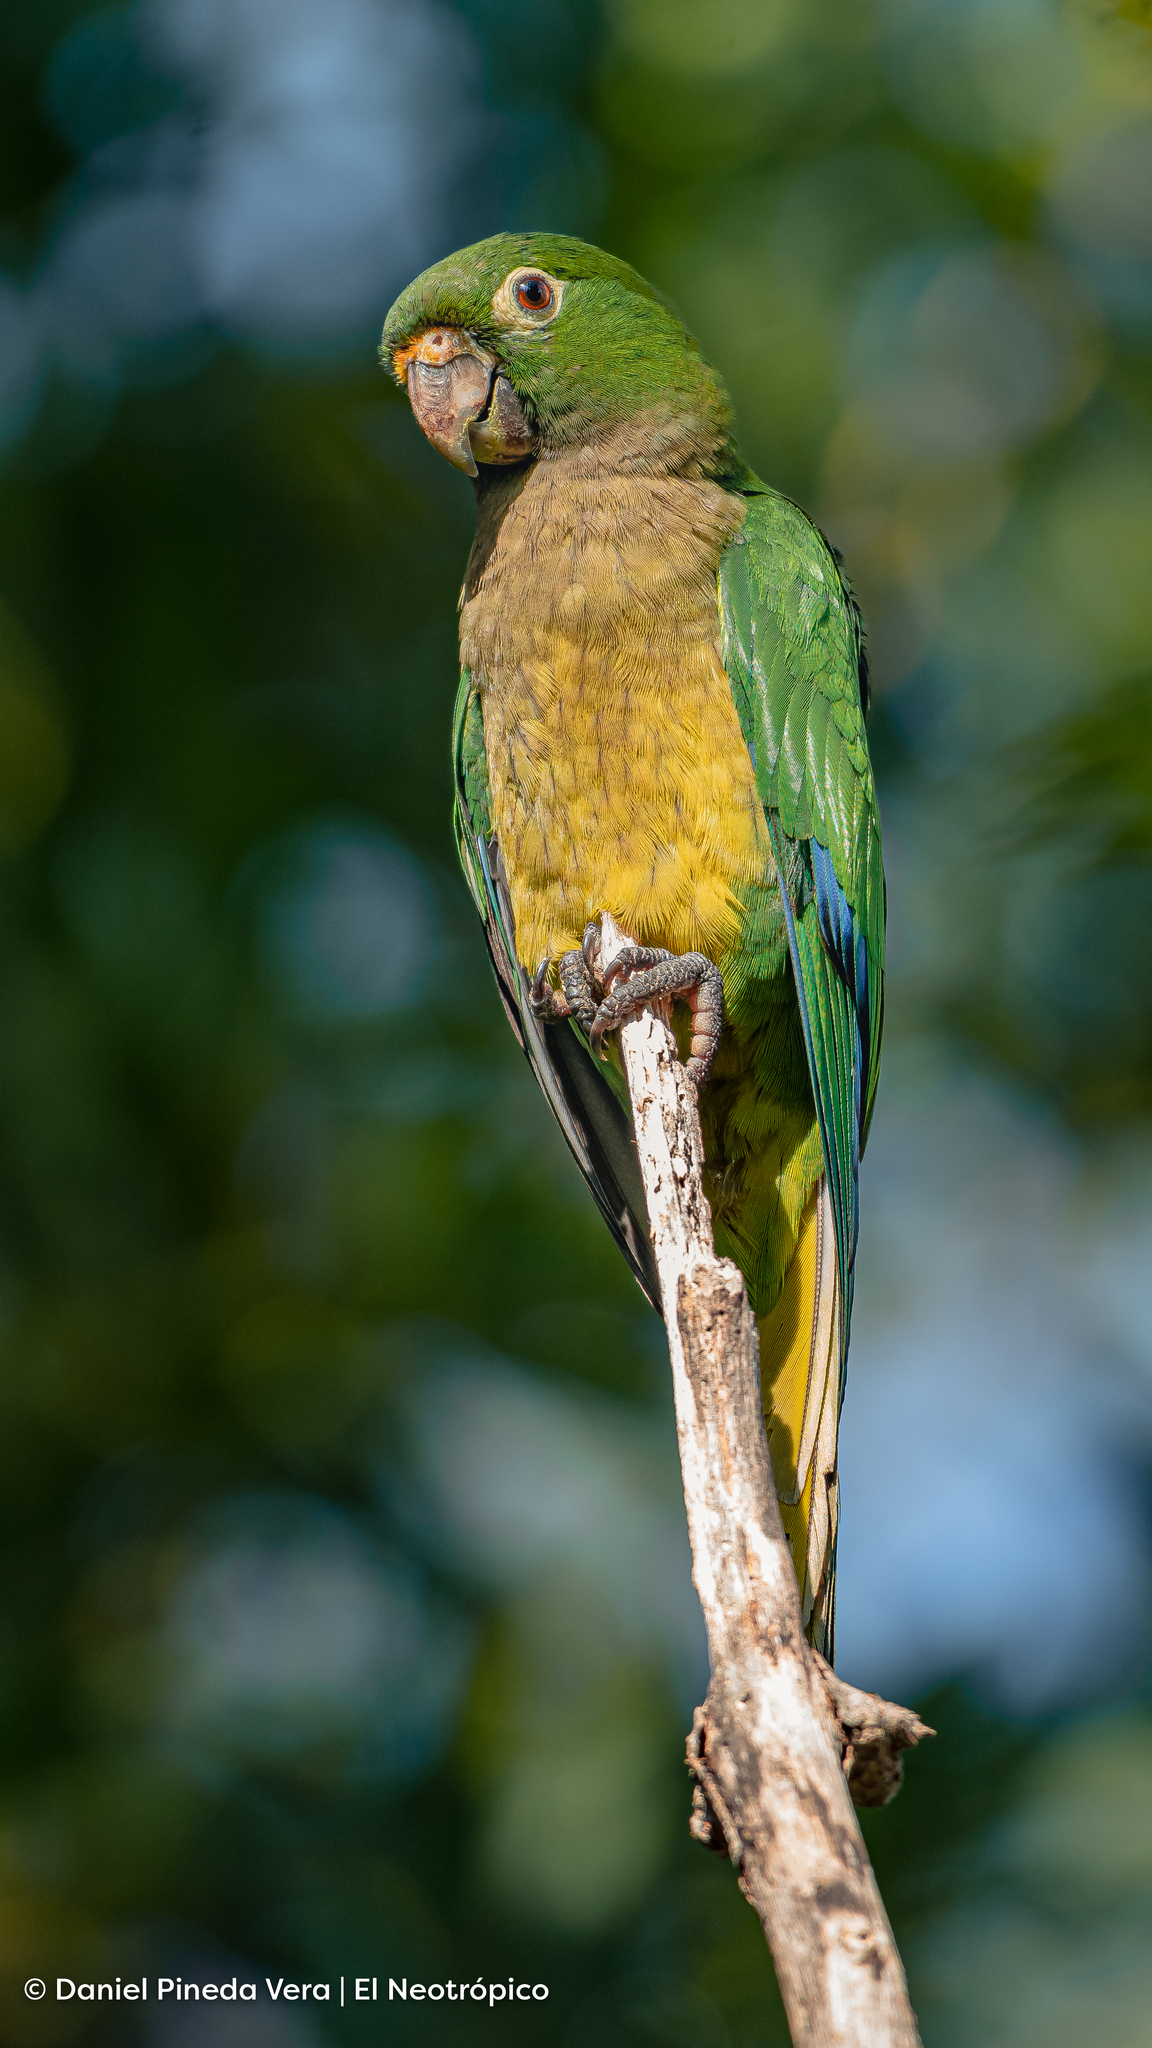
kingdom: Animalia
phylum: Chordata
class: Aves
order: Psittaciformes
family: Psittacidae
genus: Aratinga
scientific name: Aratinga nana
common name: Olive-throated parakeet
